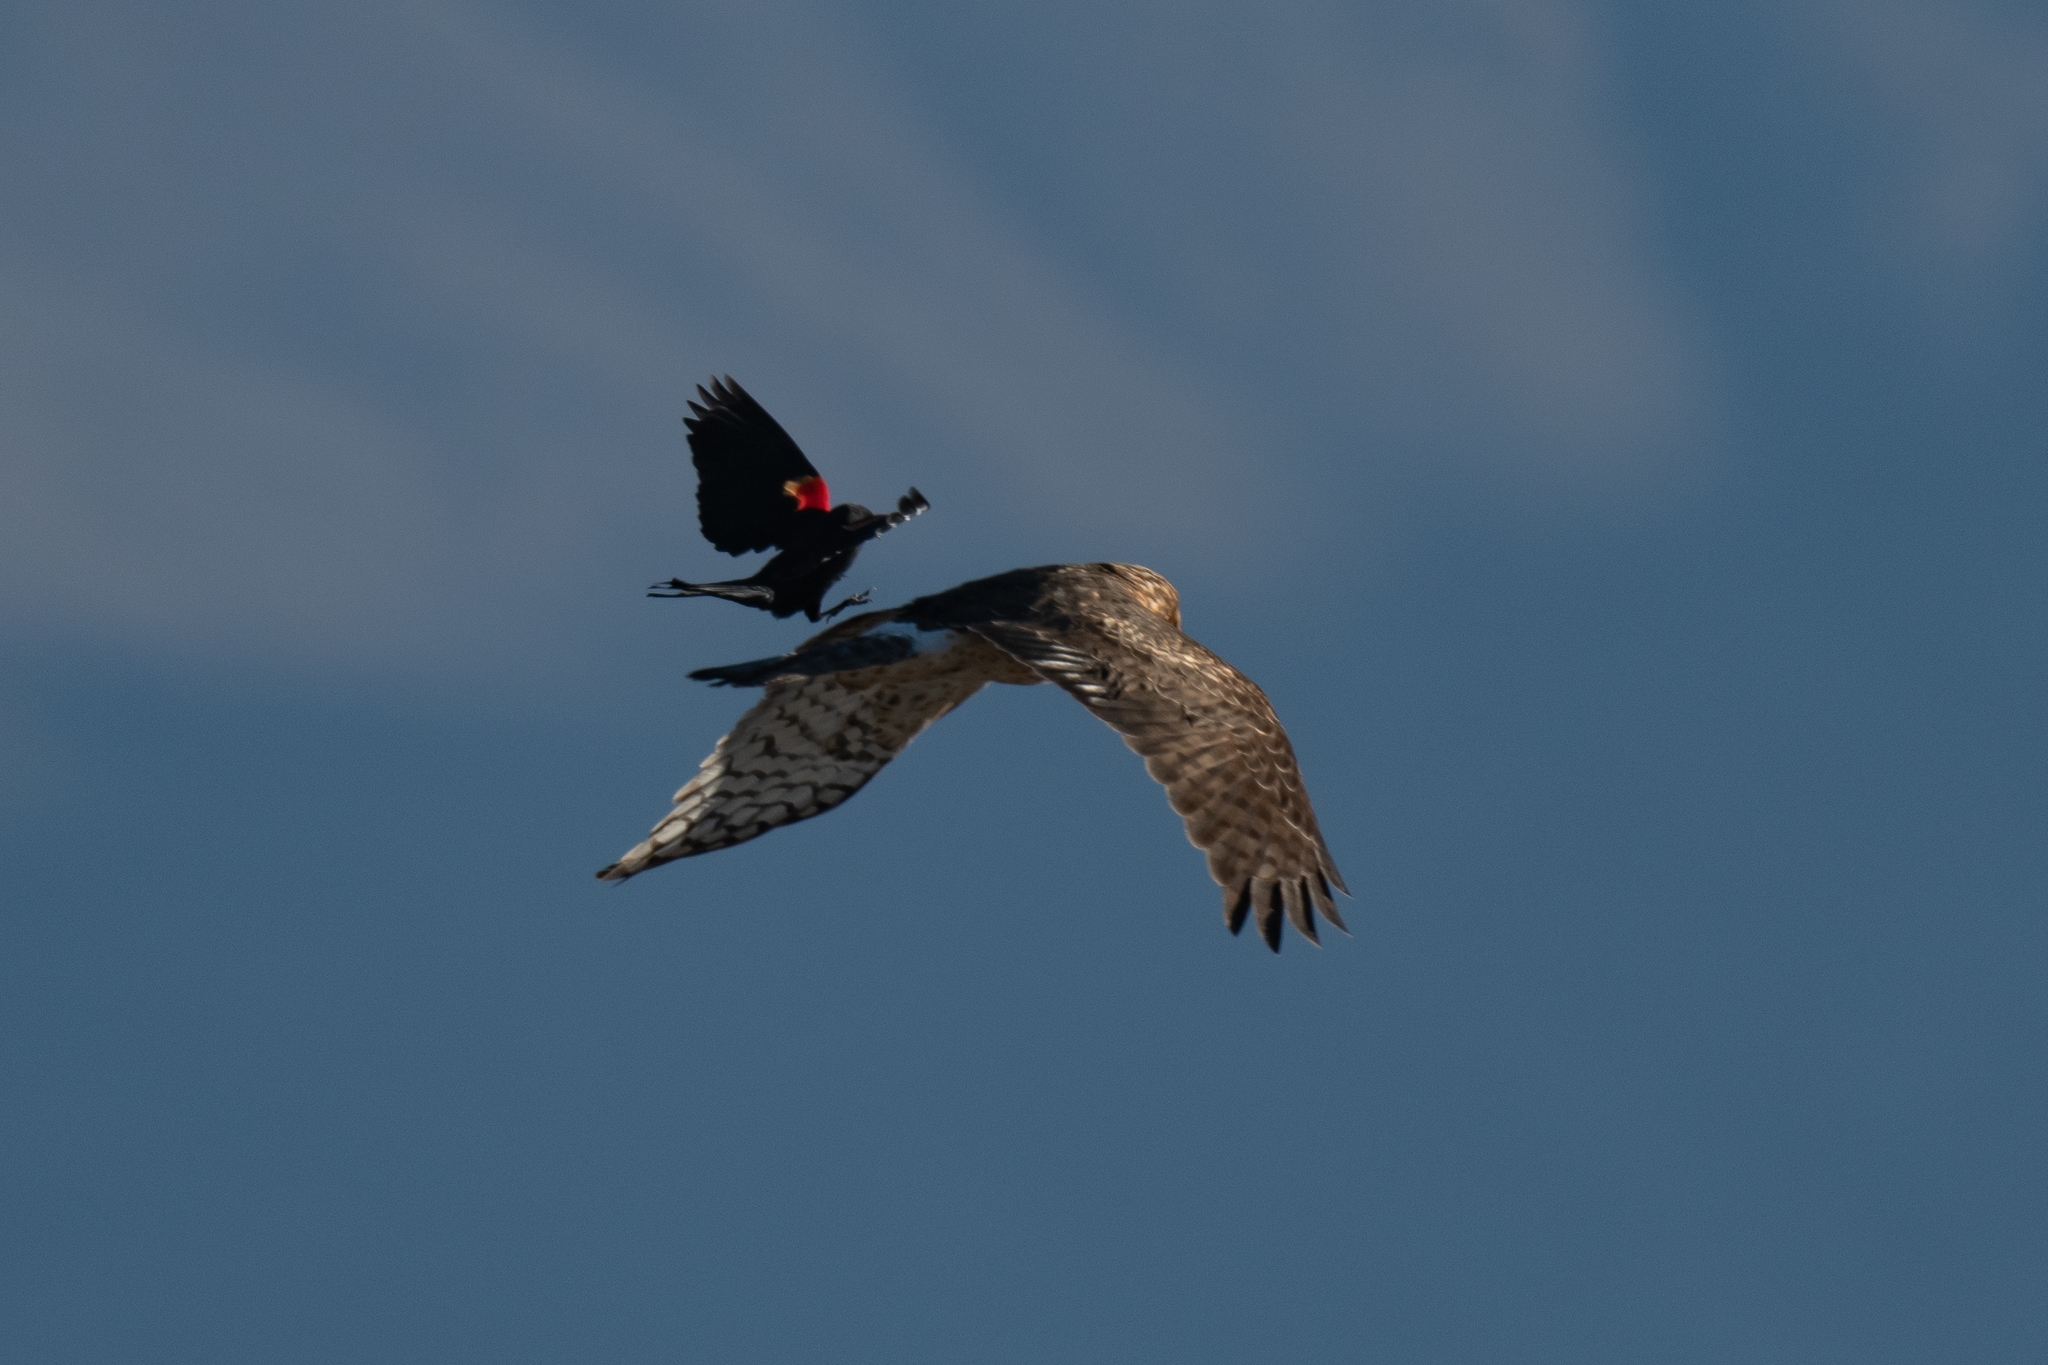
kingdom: Animalia
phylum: Chordata
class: Aves
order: Accipitriformes
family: Accipitridae
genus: Circus
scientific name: Circus cyaneus
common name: Hen harrier
